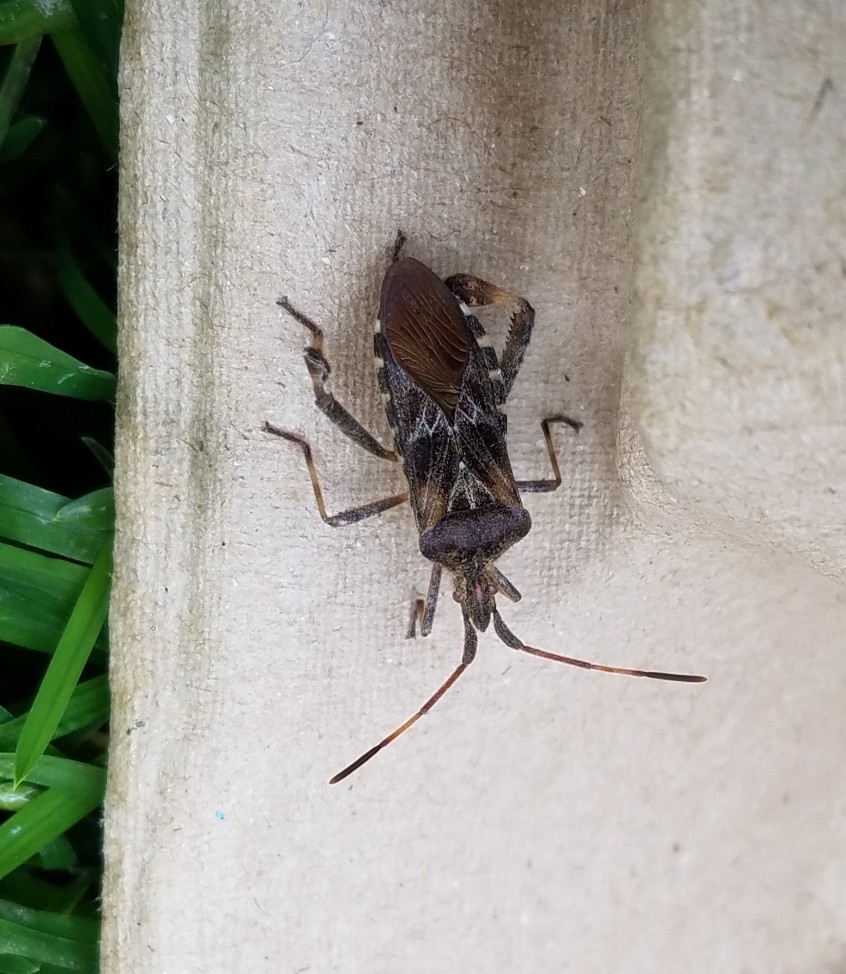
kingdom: Animalia
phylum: Arthropoda
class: Insecta
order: Hemiptera
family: Coreidae
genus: Leptoglossus
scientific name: Leptoglossus occidentalis
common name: Western conifer-seed bug
